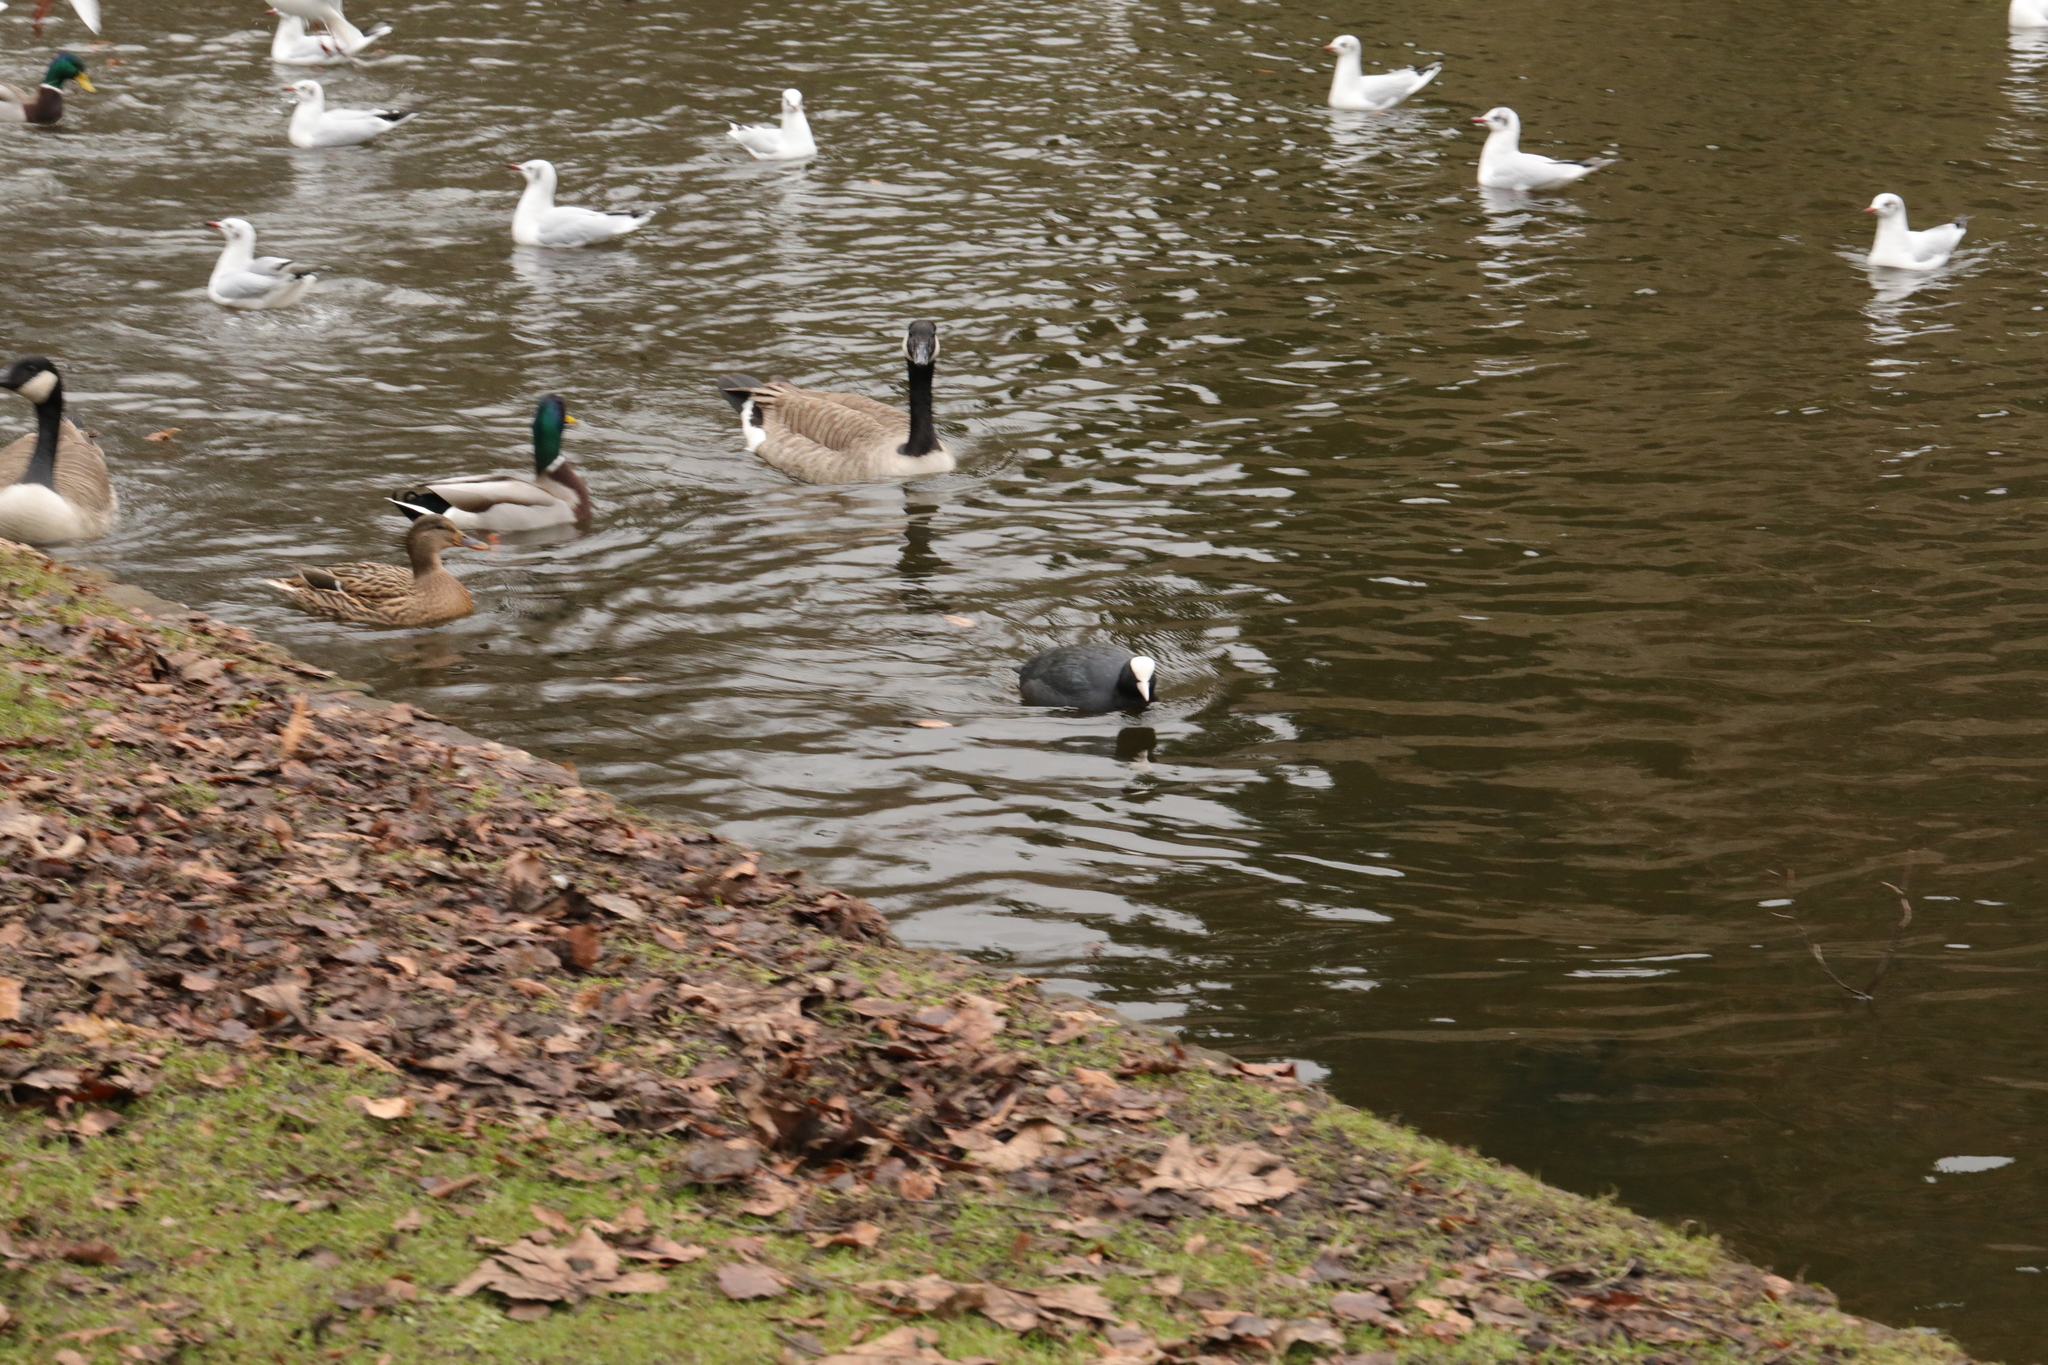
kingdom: Animalia
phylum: Chordata
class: Aves
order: Gruiformes
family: Rallidae
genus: Fulica
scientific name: Fulica atra
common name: Eurasian coot
